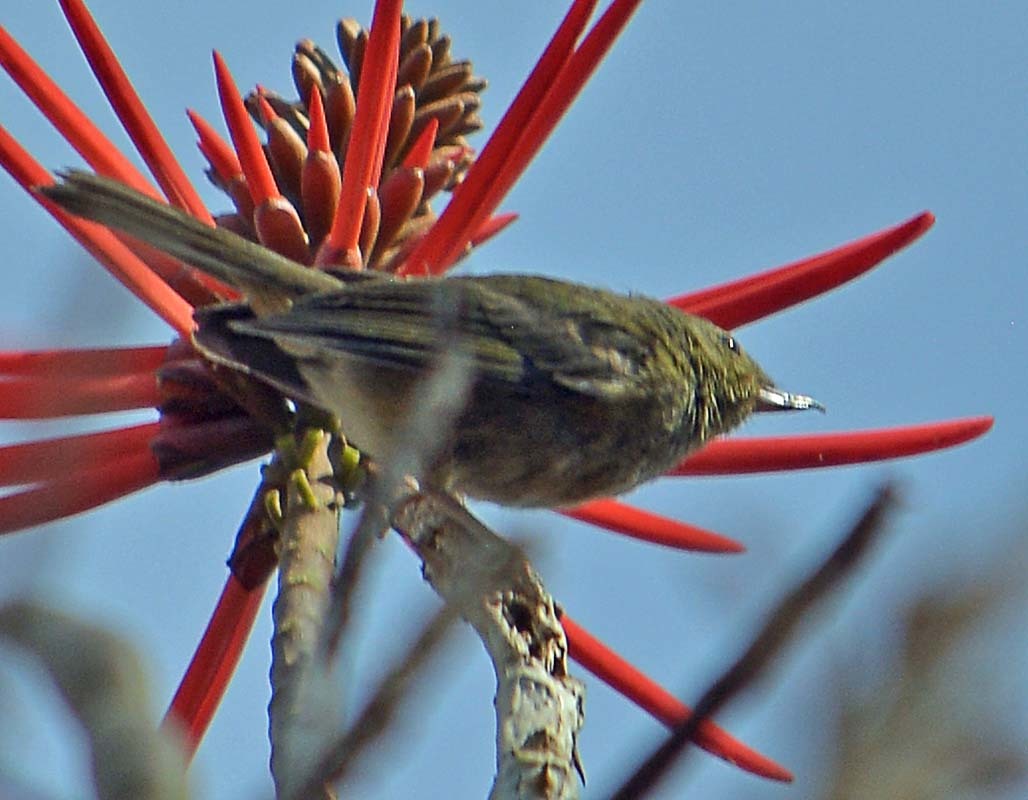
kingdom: Animalia
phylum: Chordata
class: Aves
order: Passeriformes
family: Thraupidae
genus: Diglossa
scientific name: Diglossa baritula
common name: Cinnamon-bellied flowerpiercer
